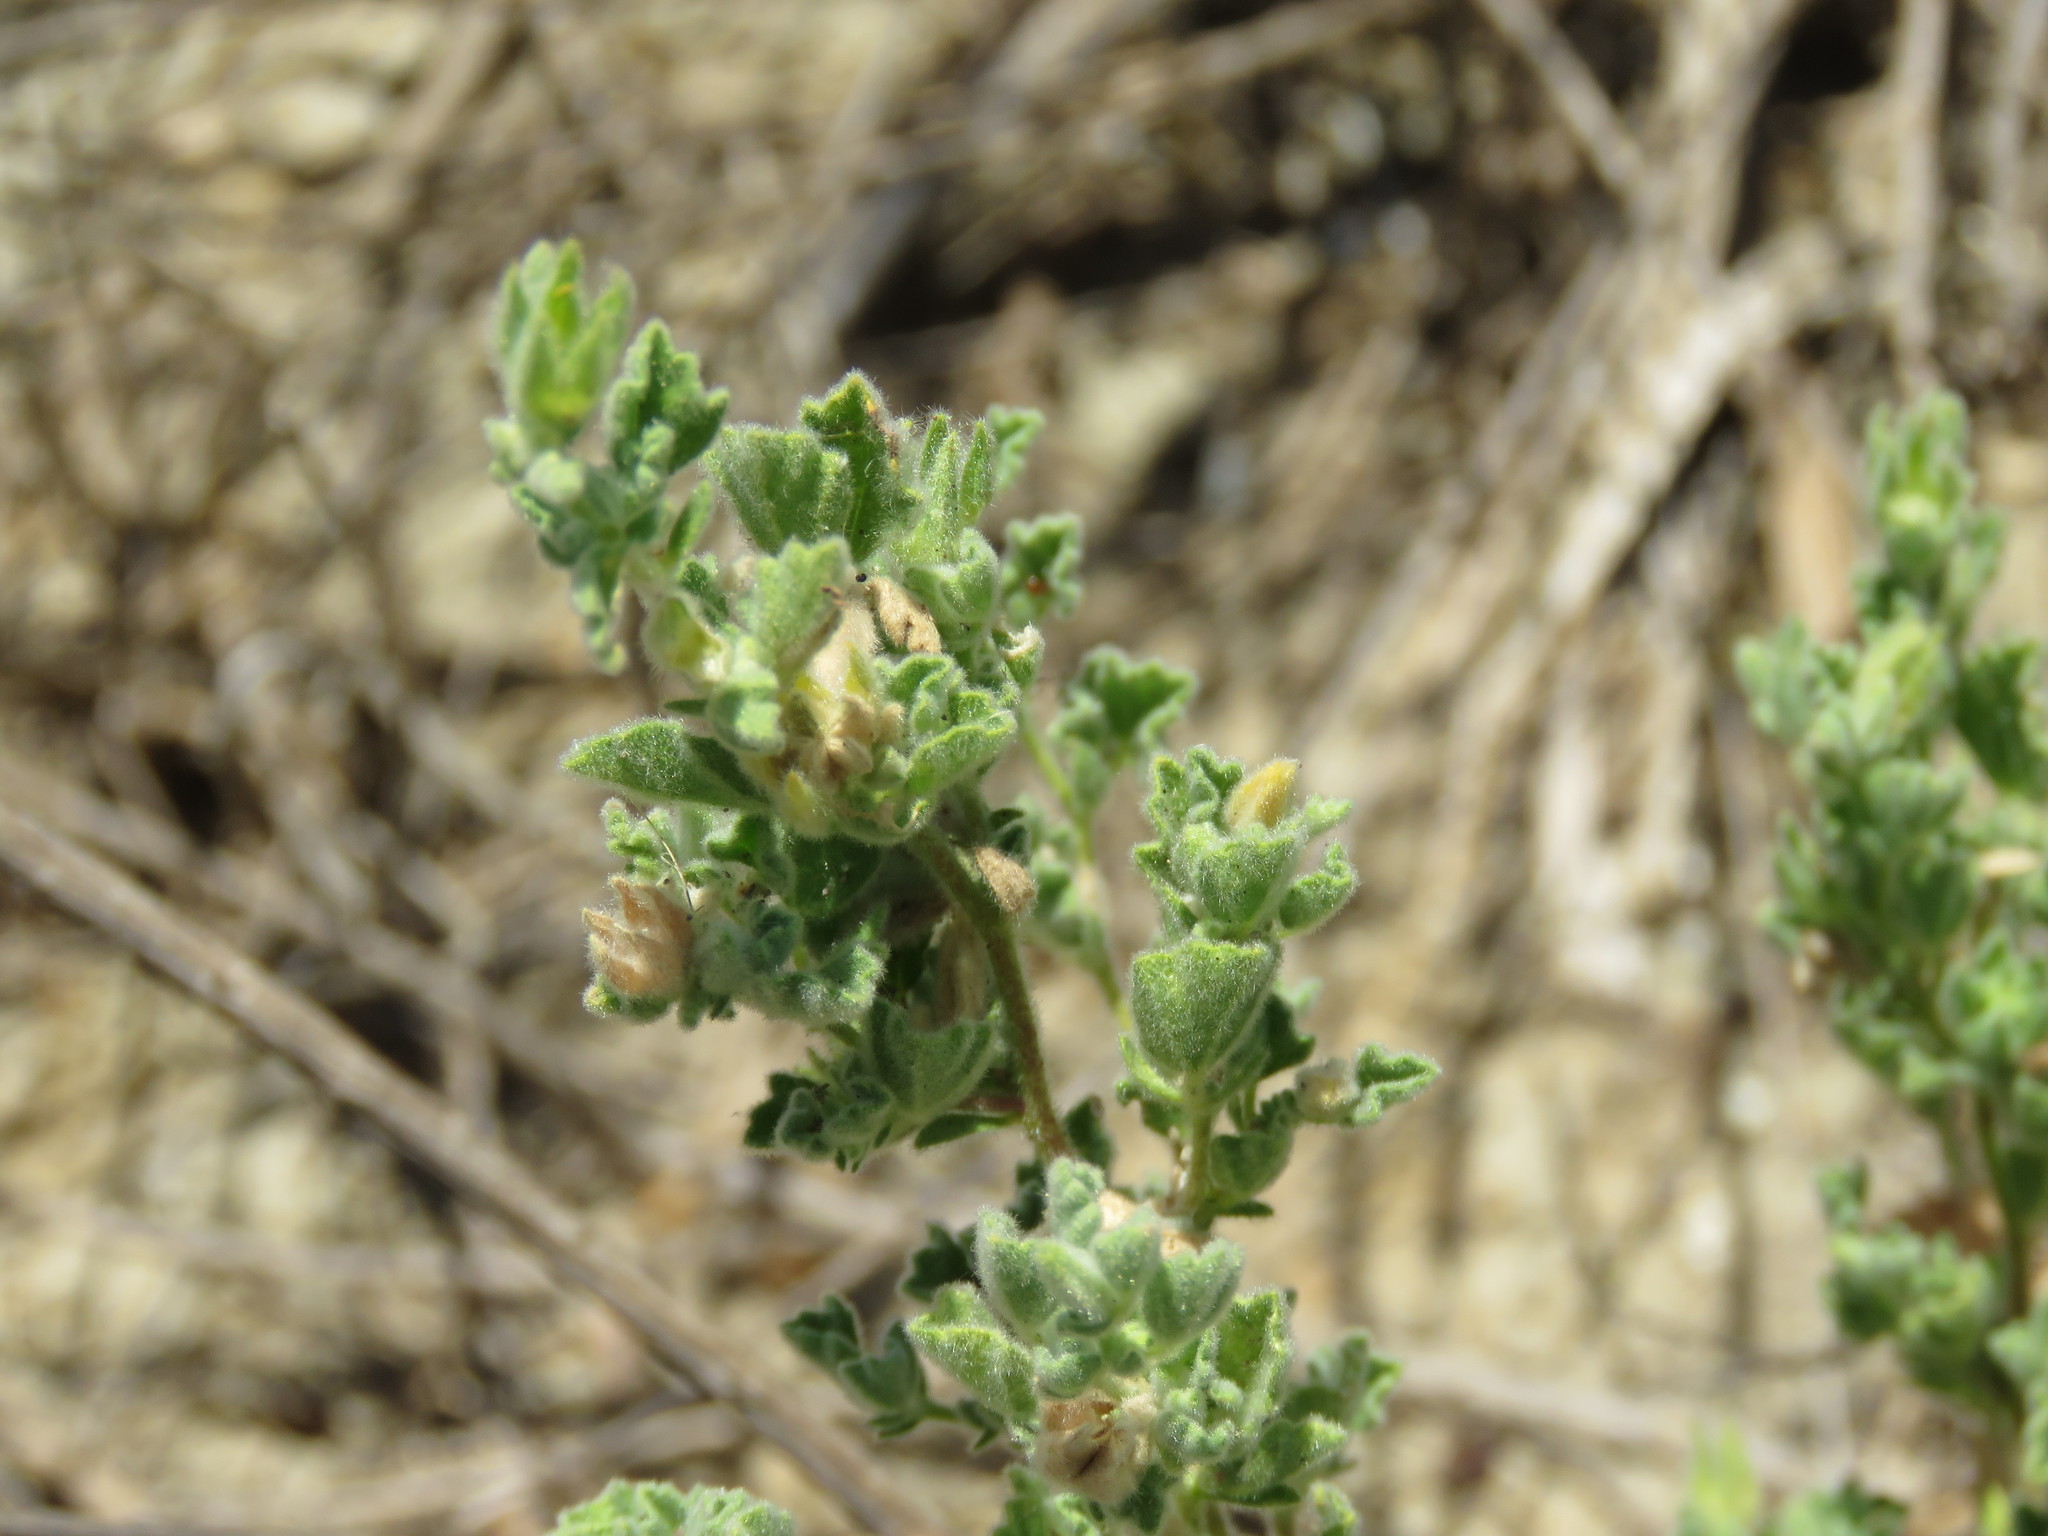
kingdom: Plantae
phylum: Tracheophyta
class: Magnoliopsida
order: Malvales
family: Malvaceae
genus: Billieturnera
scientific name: Billieturnera helleri
